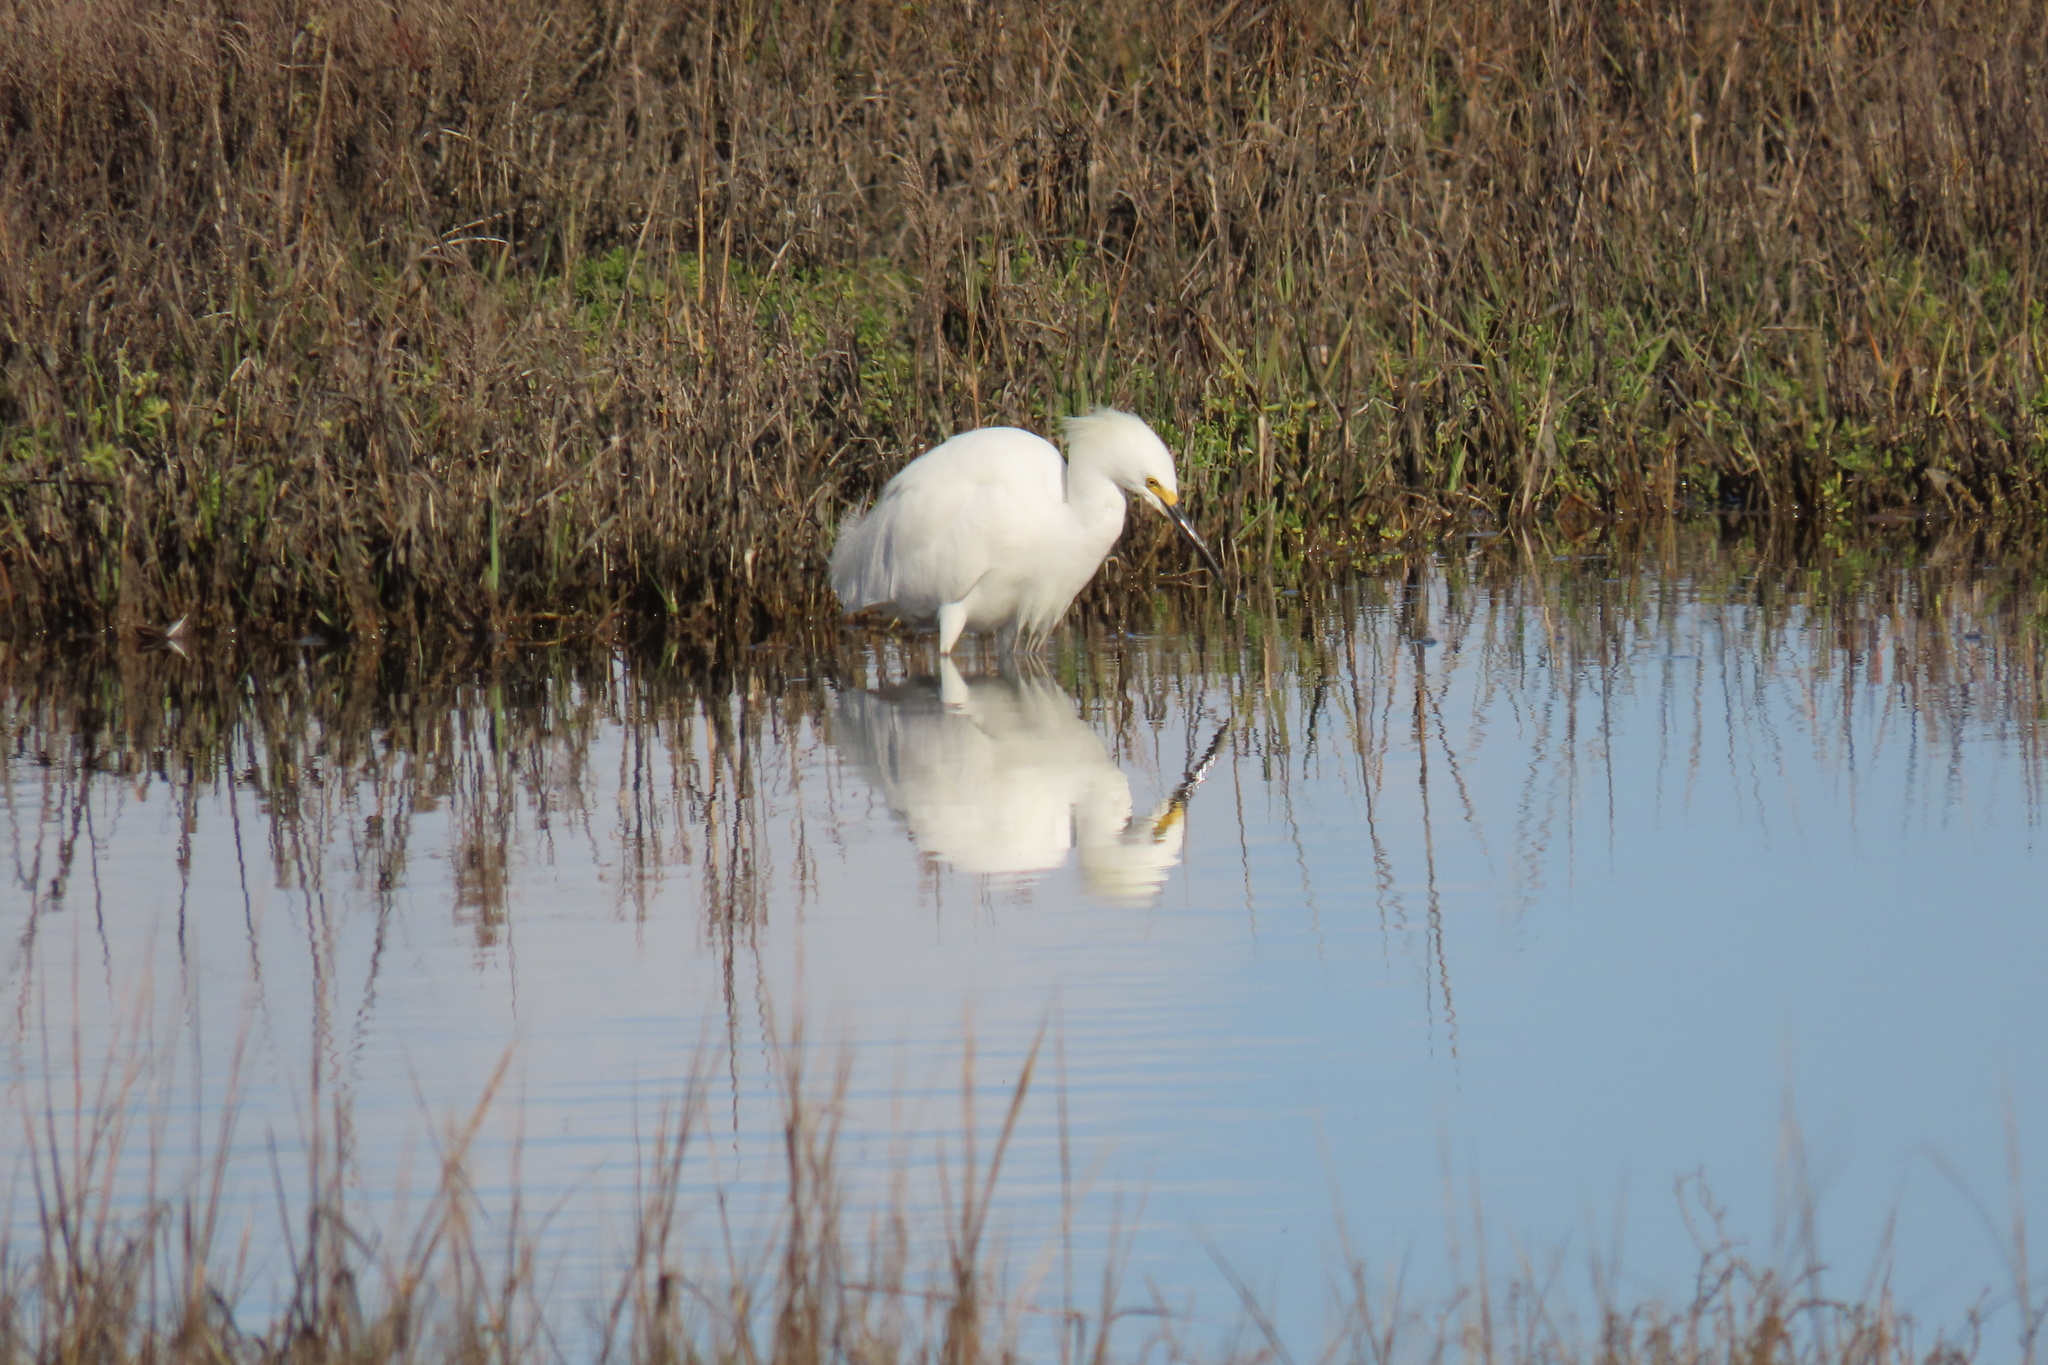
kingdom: Animalia
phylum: Chordata
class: Aves
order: Pelecaniformes
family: Ardeidae
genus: Egretta
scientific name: Egretta thula
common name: Snowy egret
